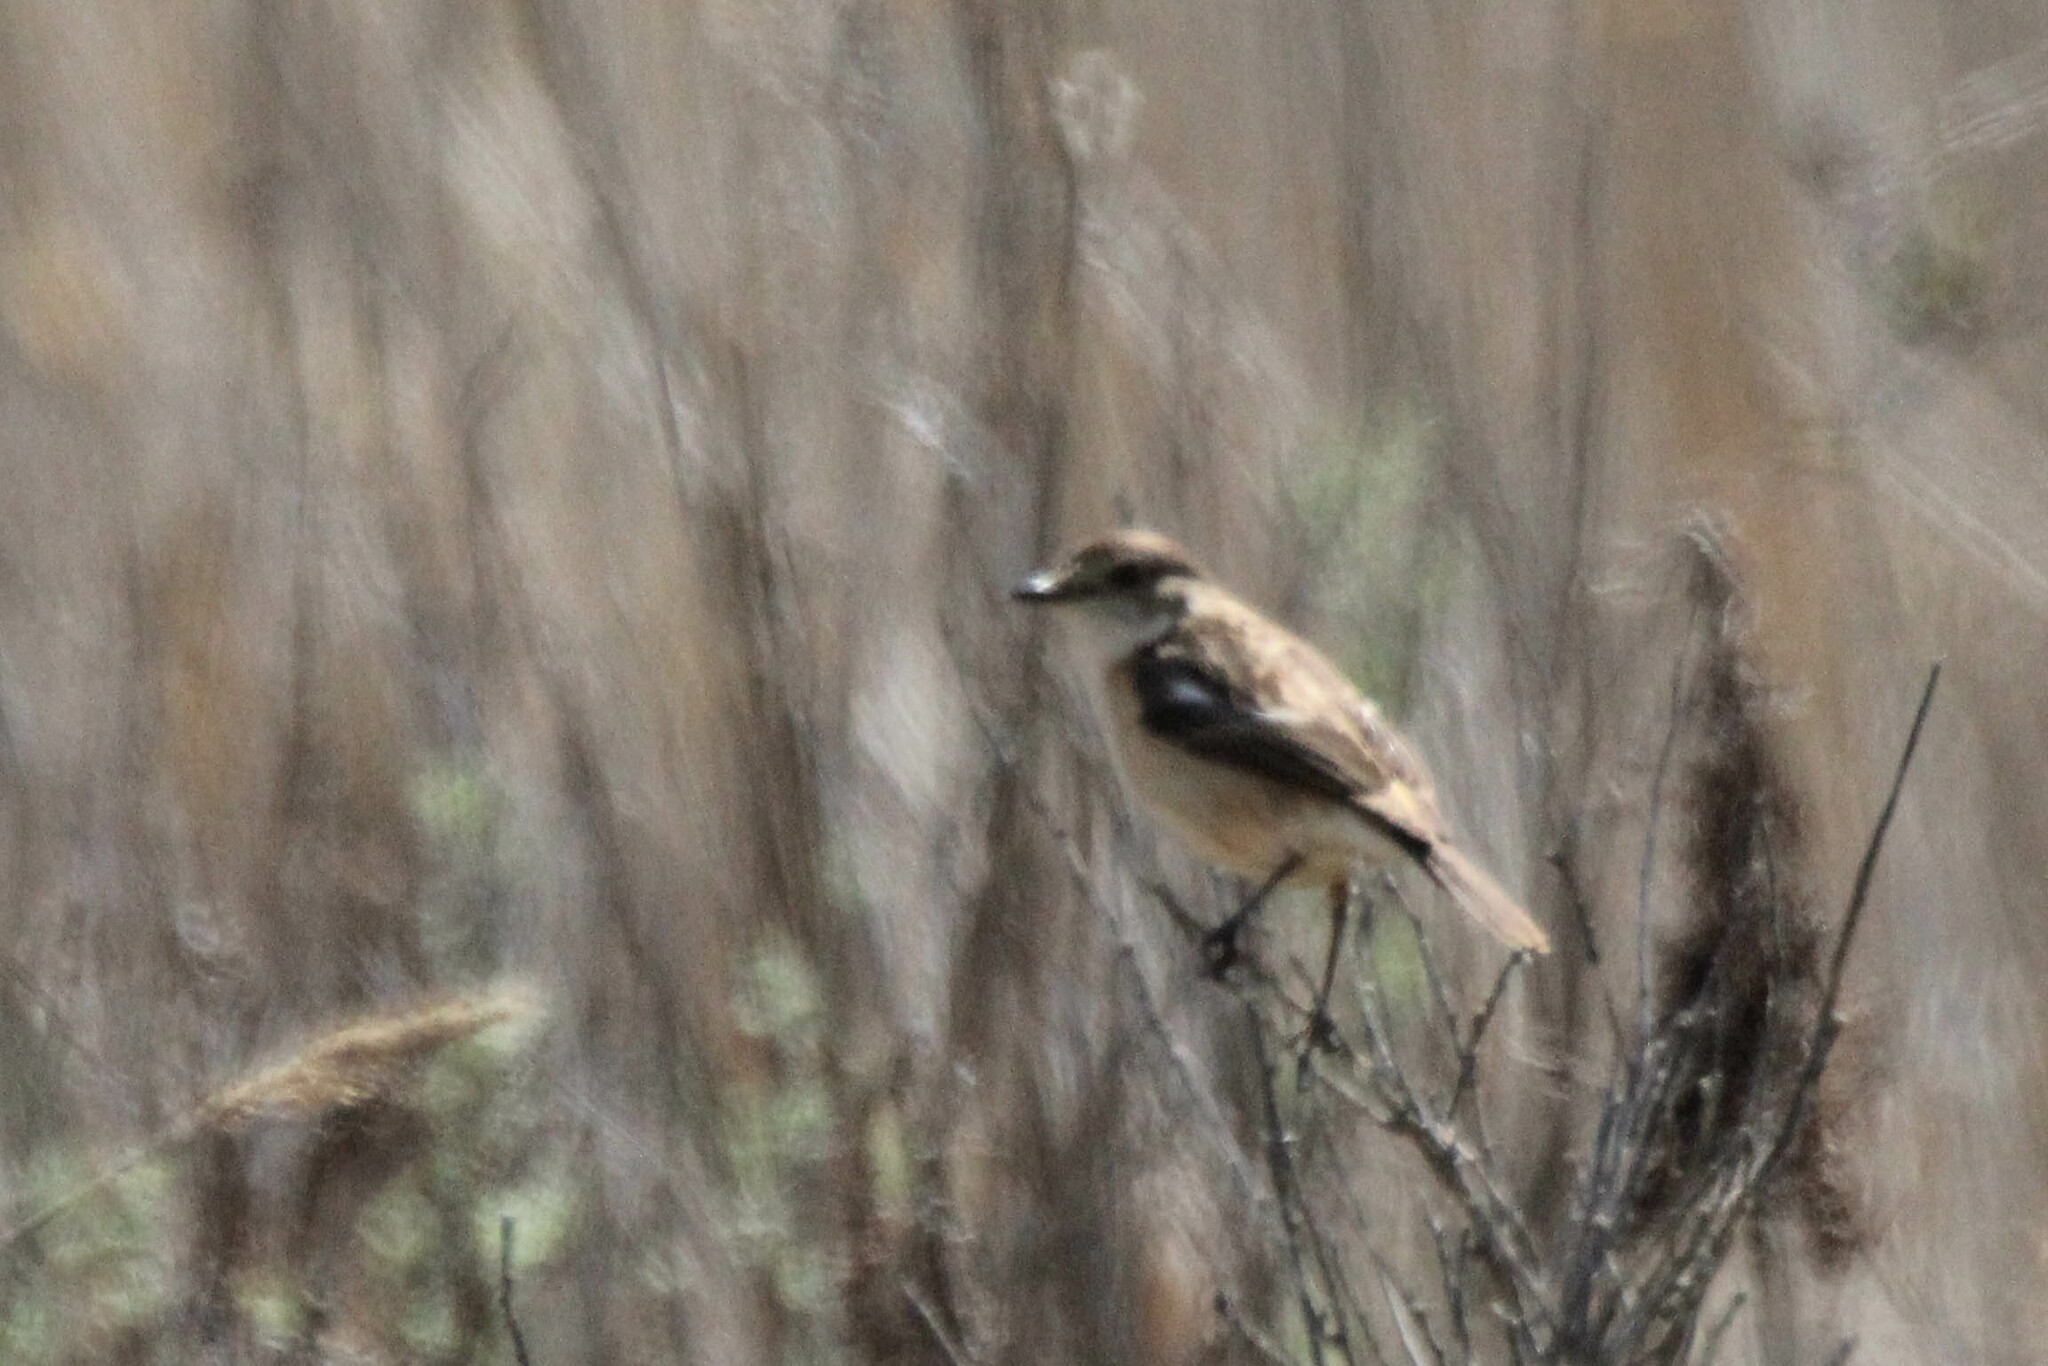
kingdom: Animalia
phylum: Chordata
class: Aves
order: Passeriformes
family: Muscicapidae
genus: Saxicola
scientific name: Saxicola stejnegeri
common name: Stejneger's stonechat
